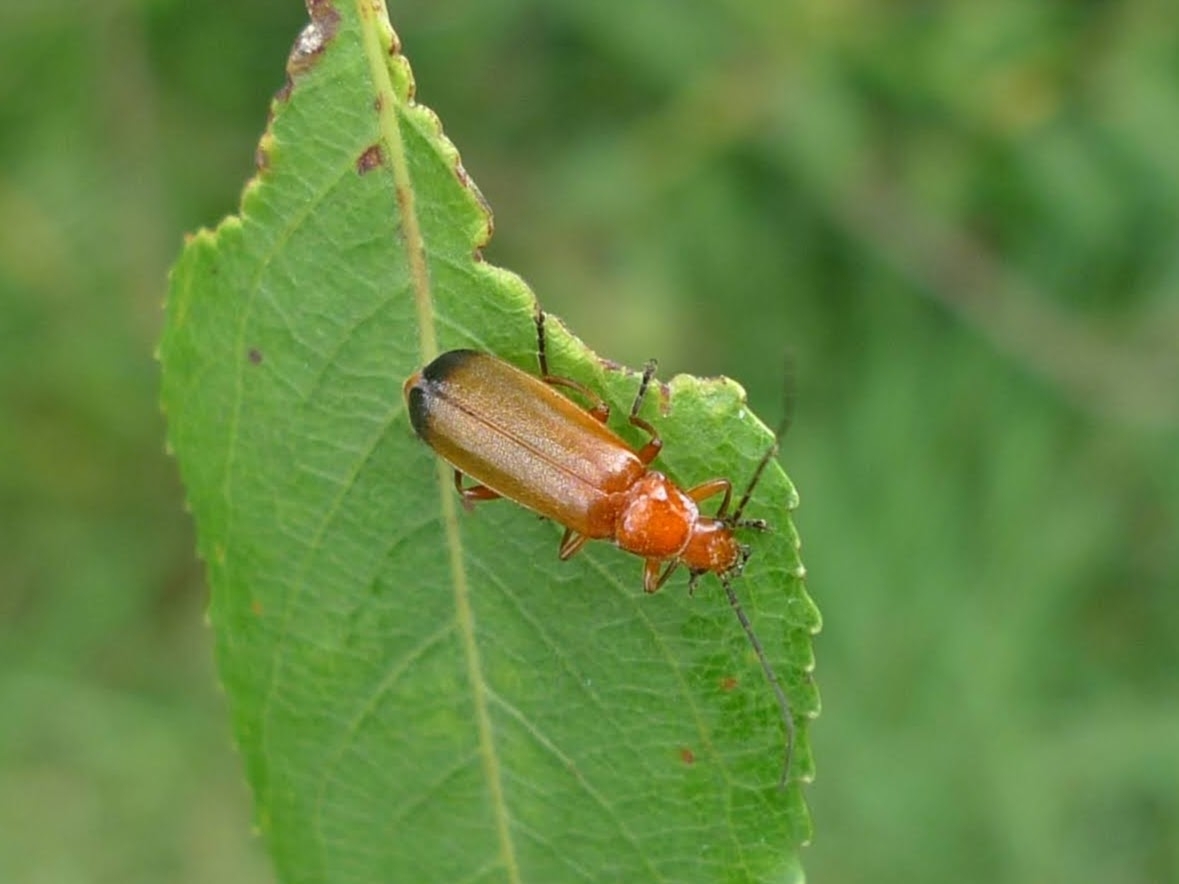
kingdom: Animalia
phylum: Arthropoda
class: Insecta
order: Coleoptera
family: Cantharidae
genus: Rhagonycha
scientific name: Rhagonycha fulva
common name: Common red soldier beetle
